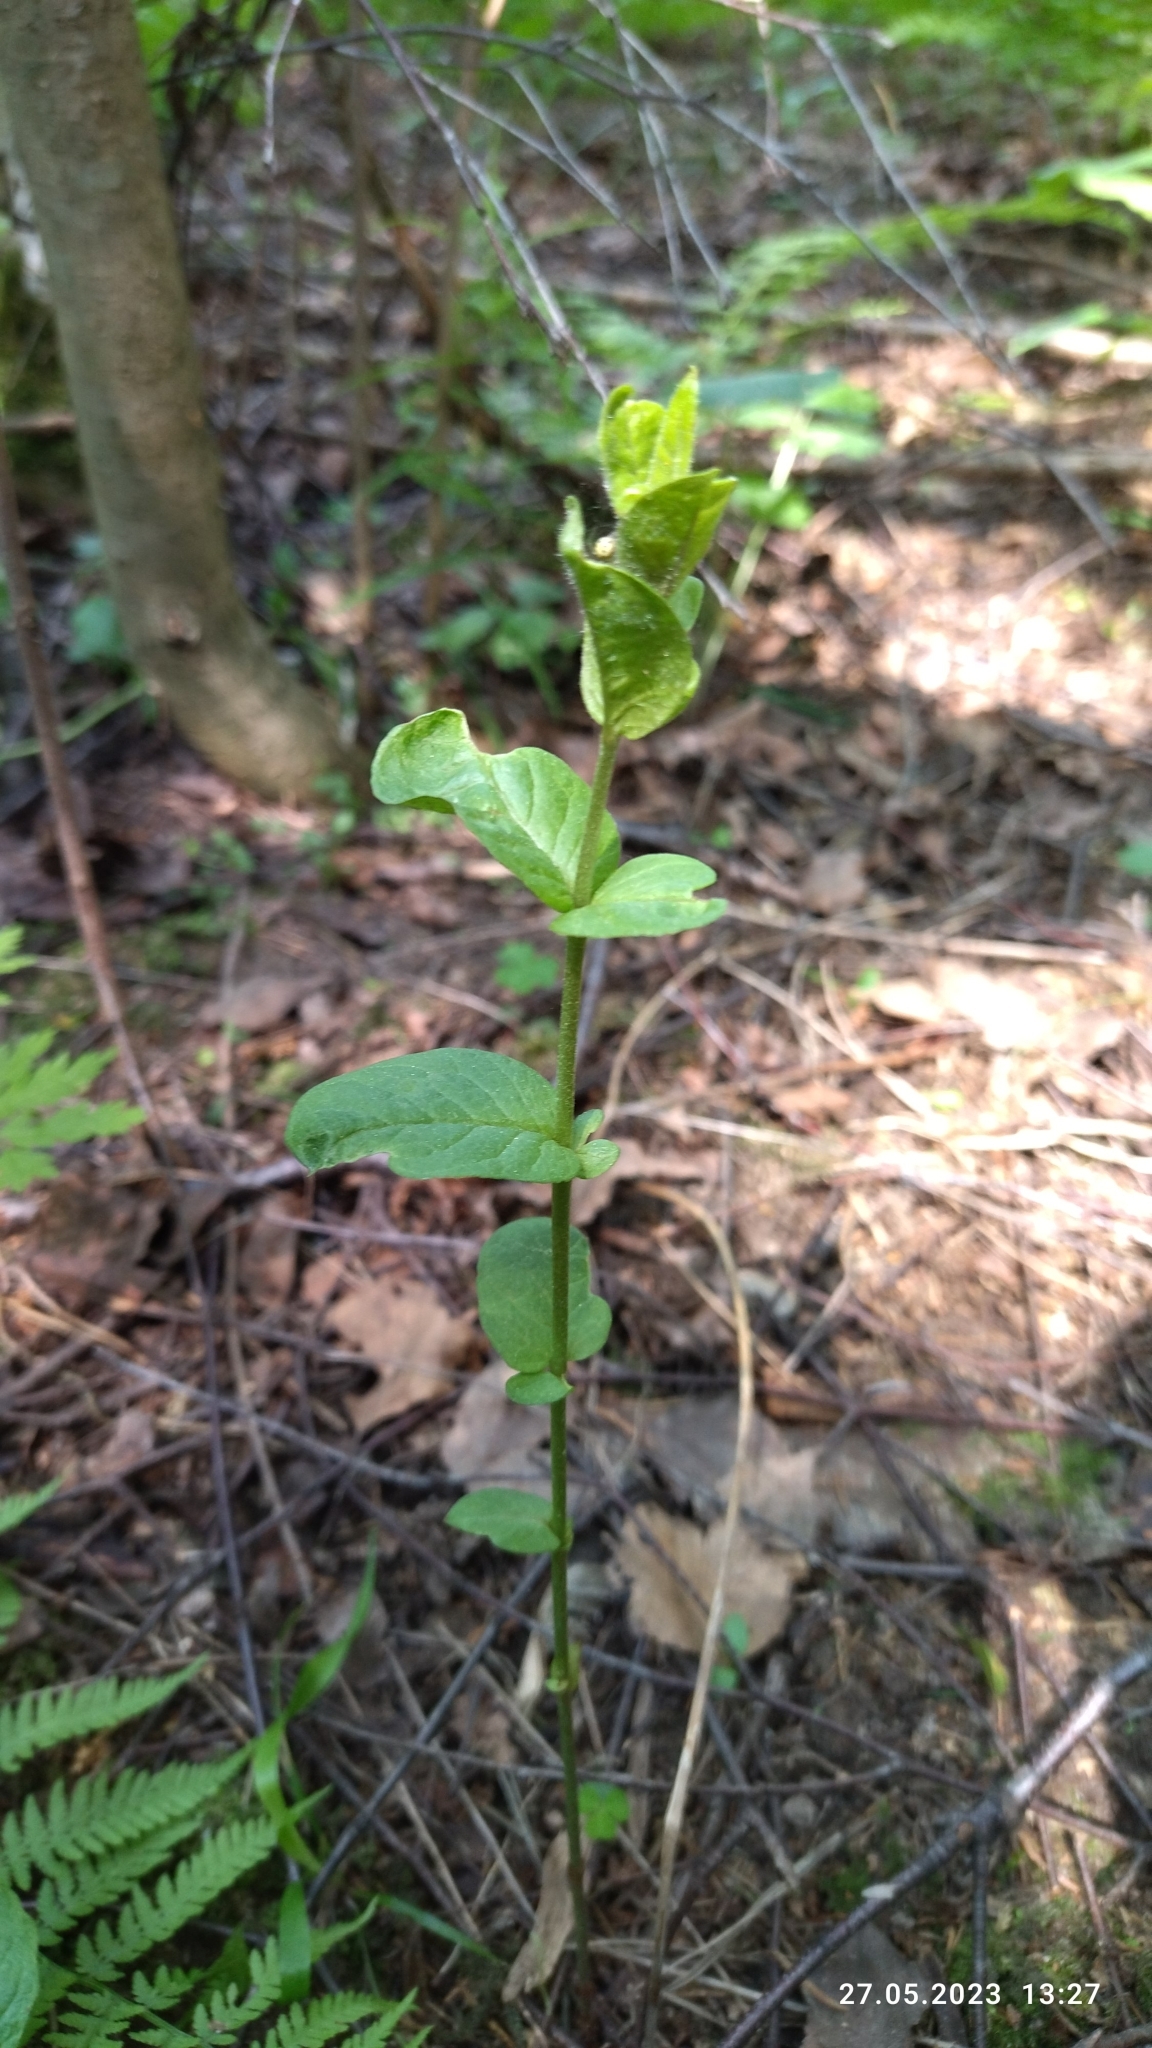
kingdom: Plantae
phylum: Tracheophyta
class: Magnoliopsida
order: Ericales
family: Primulaceae
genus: Lysimachia
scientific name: Lysimachia vulgaris
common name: Yellow loosestrife
